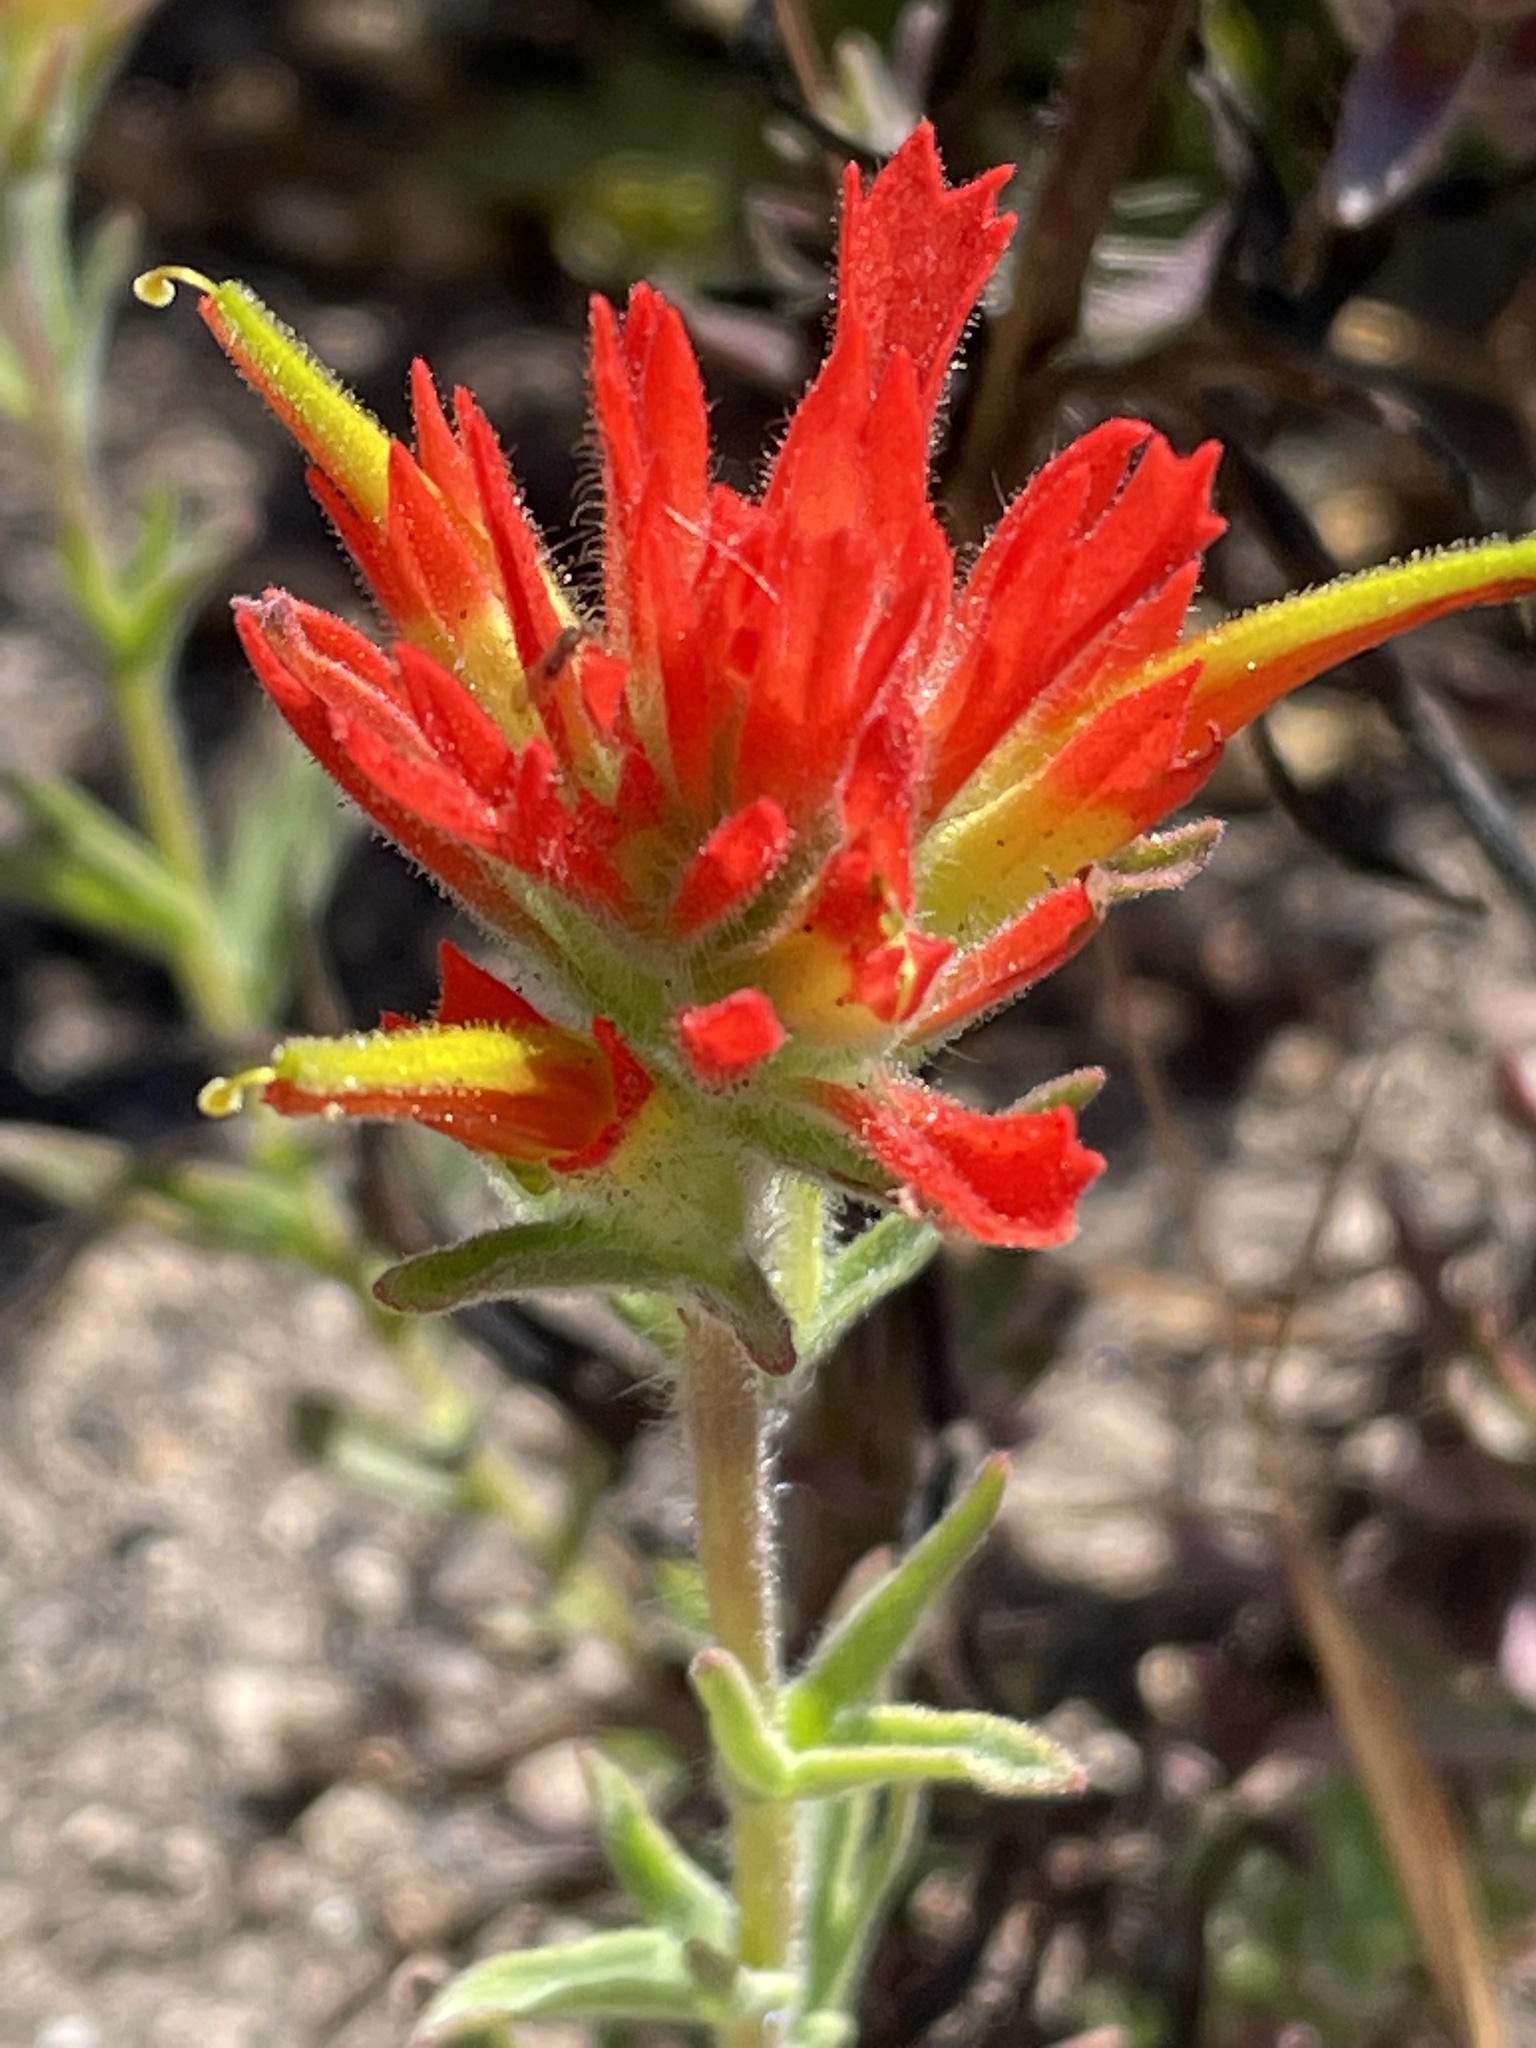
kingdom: Plantae
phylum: Tracheophyta
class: Magnoliopsida
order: Lamiales
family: Orobanchaceae
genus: Castilleja
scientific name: Castilleja affinis
